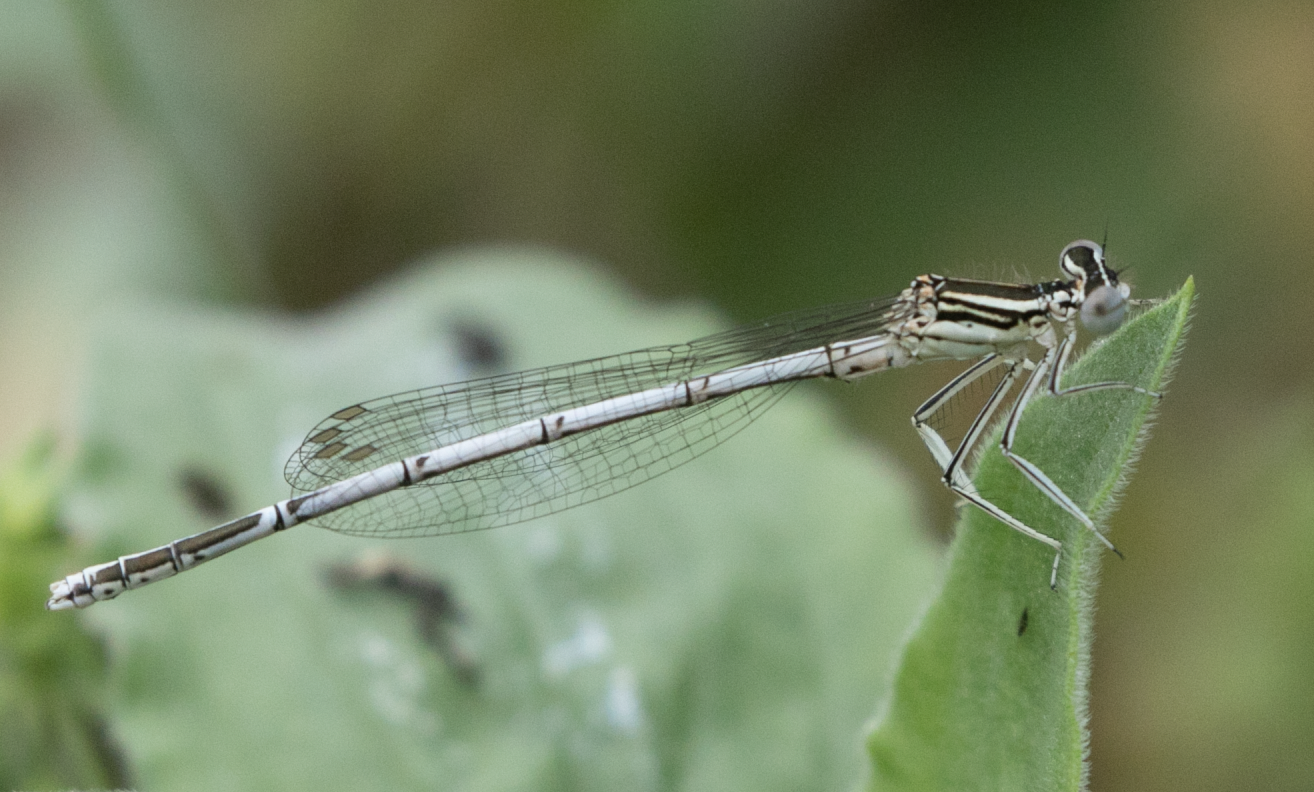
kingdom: Animalia
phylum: Arthropoda
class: Insecta
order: Odonata
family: Platycnemididae
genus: Platycnemis
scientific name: Platycnemis pennipes
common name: White-legged damselfly
